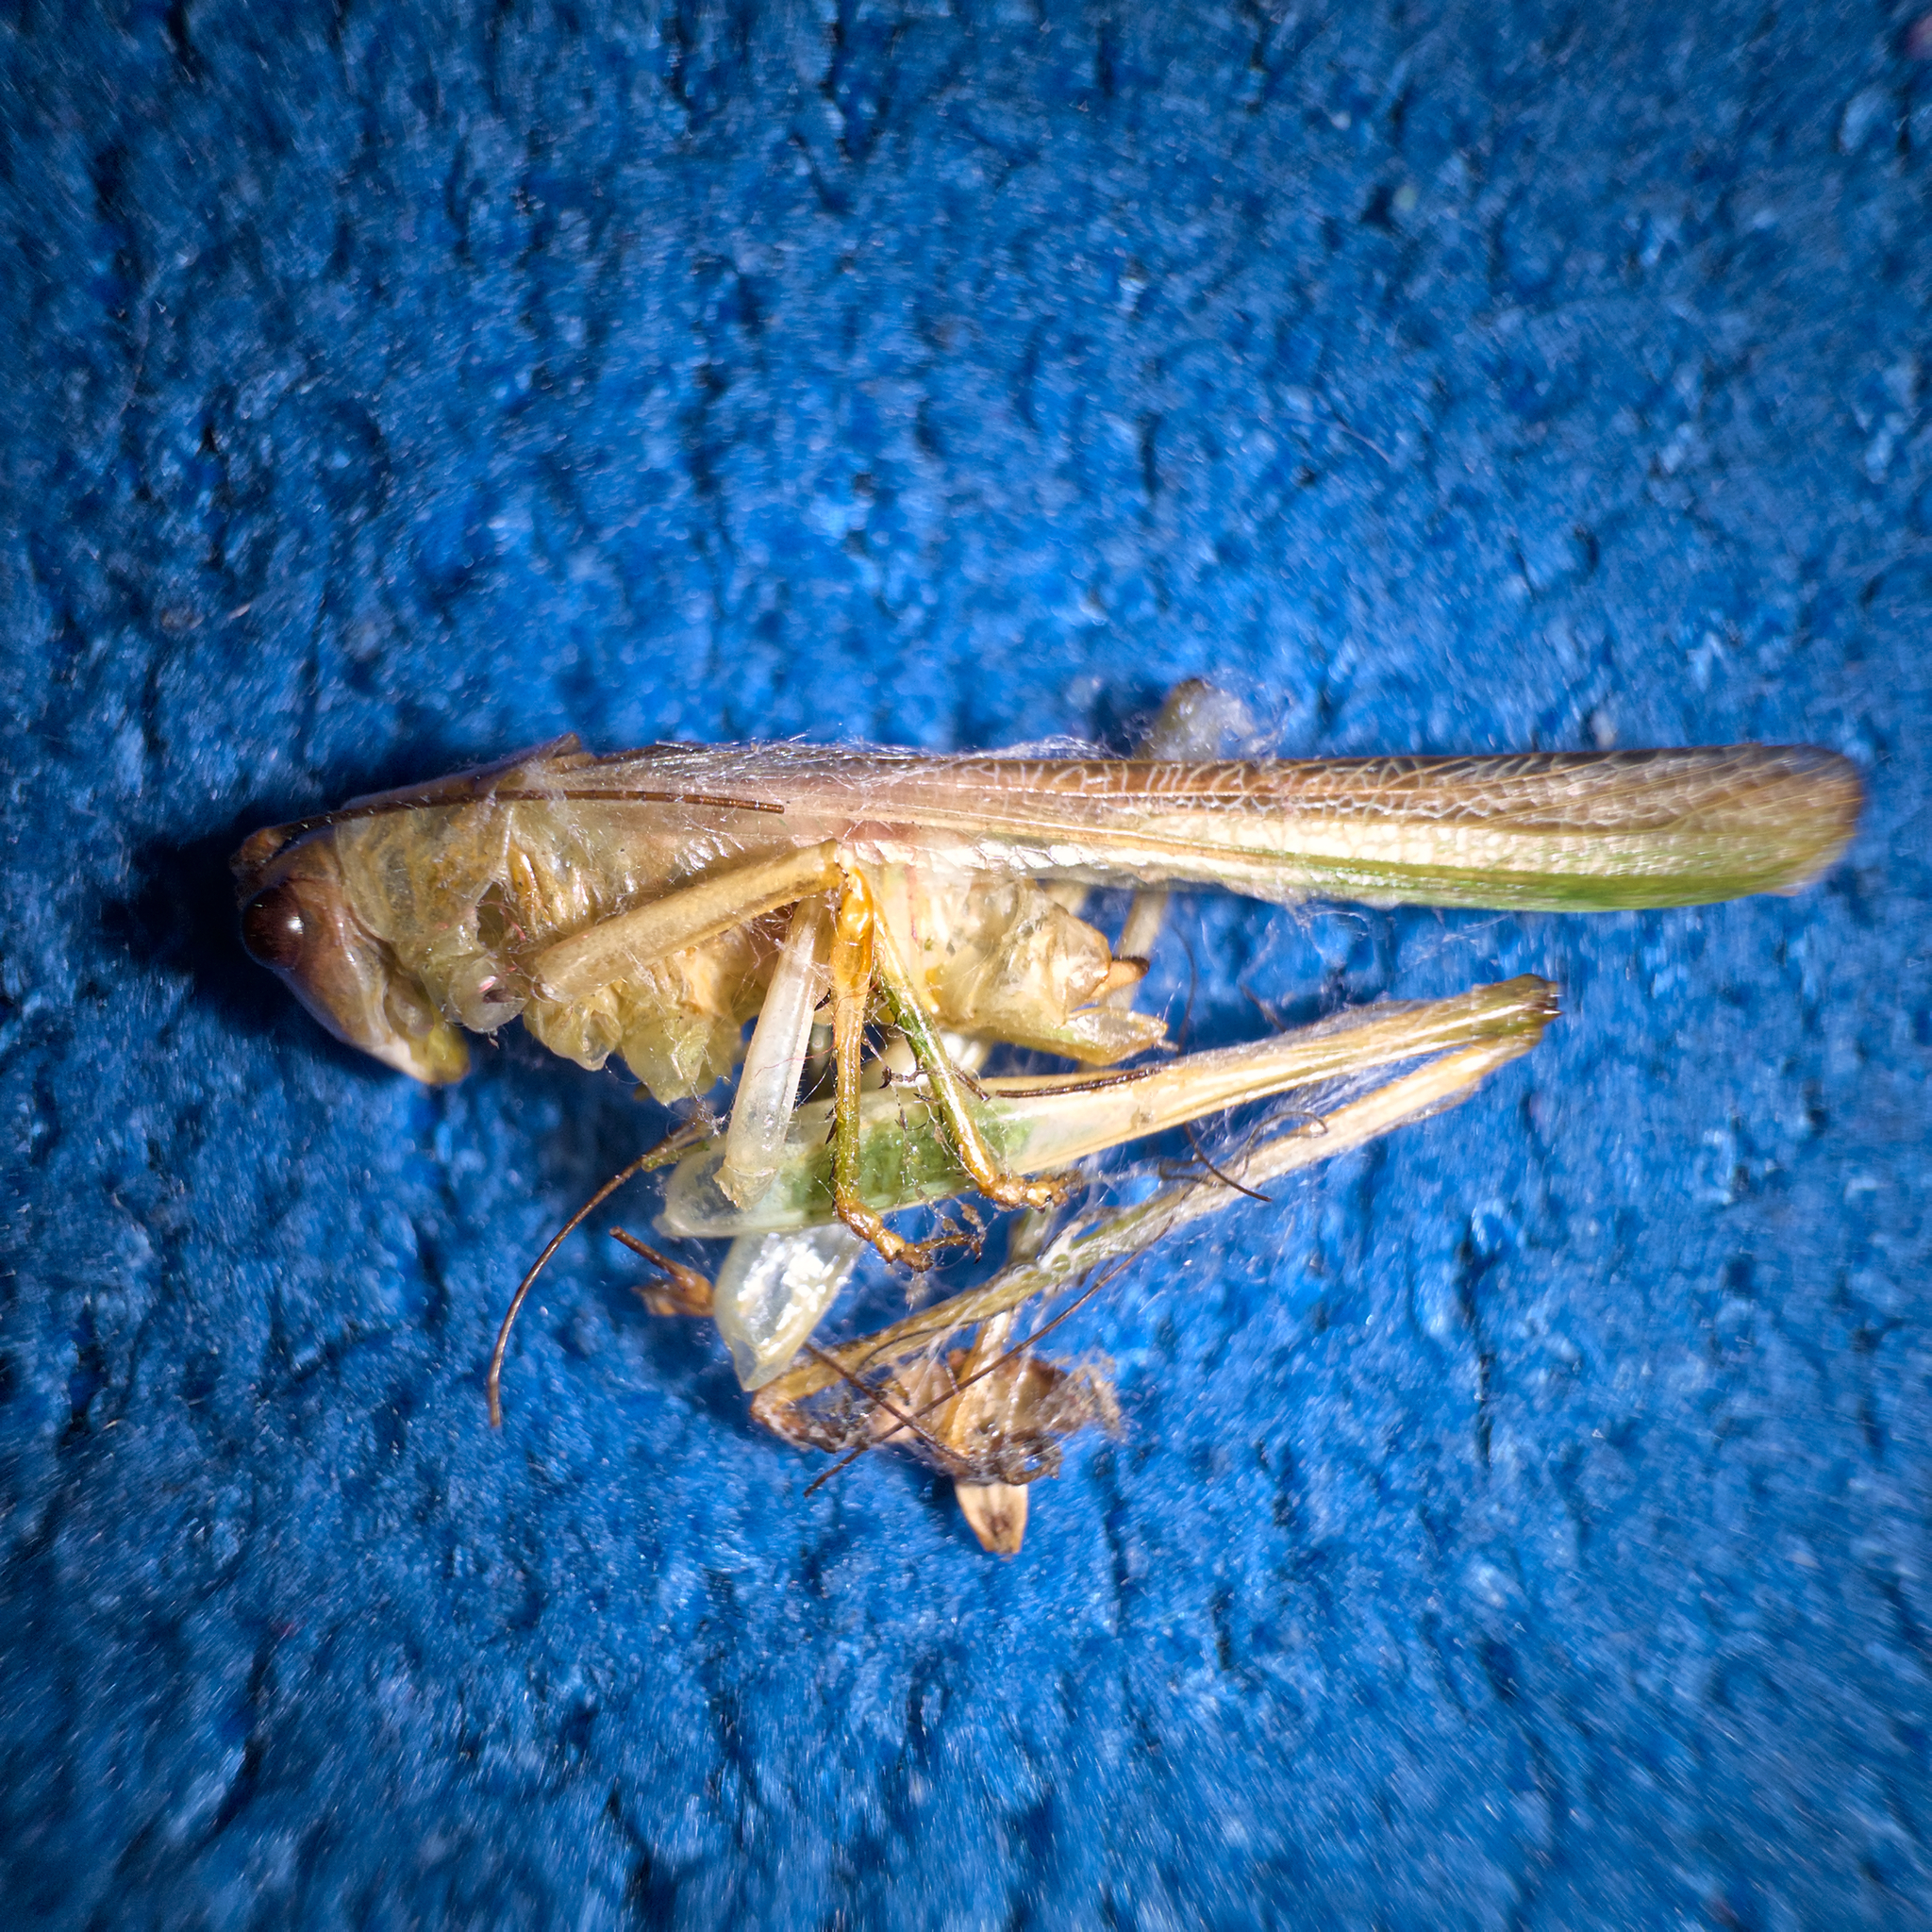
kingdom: Animalia
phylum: Arthropoda
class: Insecta
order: Orthoptera
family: Tettigoniidae
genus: Conocephalomima
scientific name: Conocephalomima barameda
